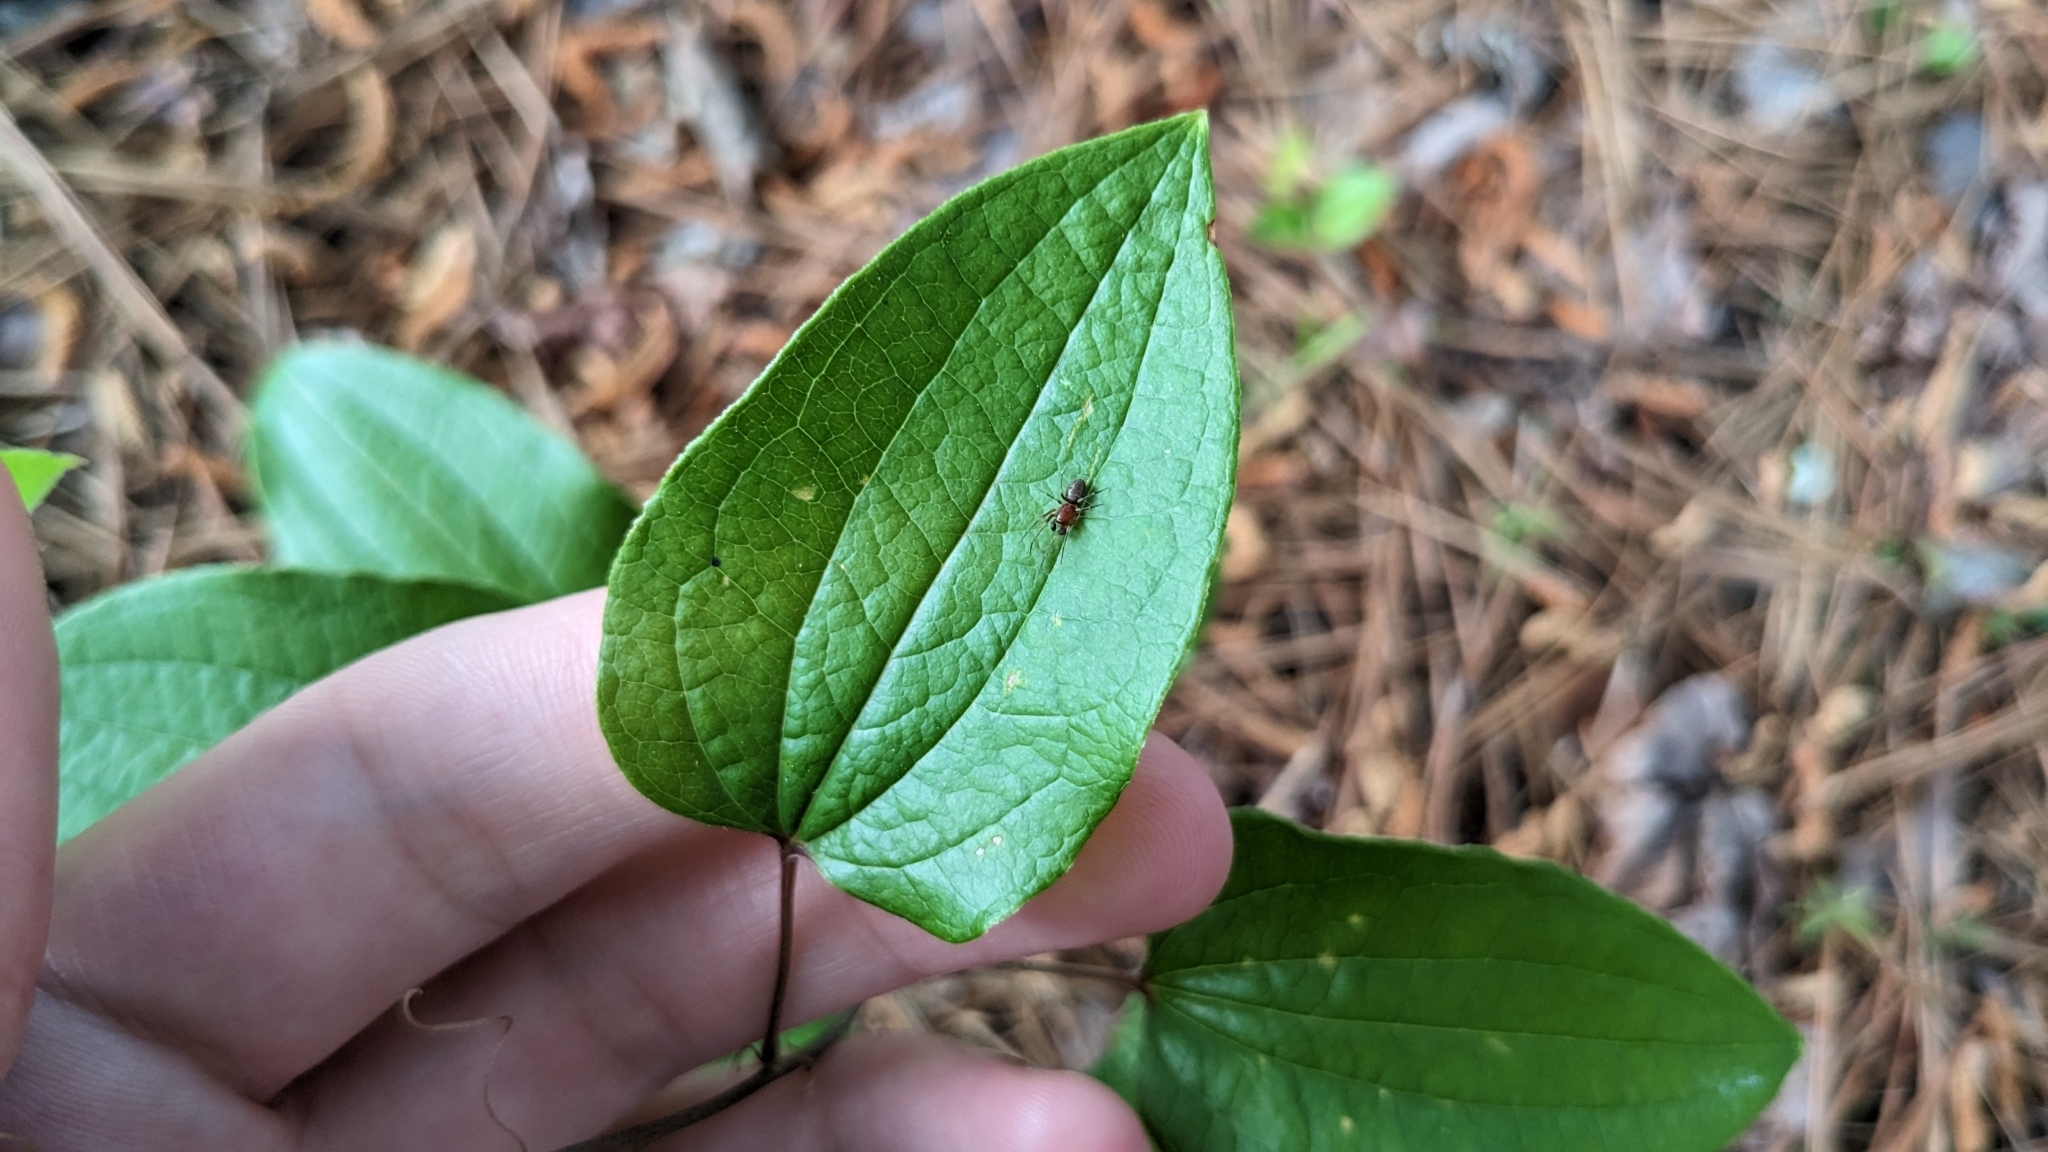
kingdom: Plantae
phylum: Tracheophyta
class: Liliopsida
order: Liliales
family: Smilacaceae
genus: Smilax
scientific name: Smilax pumila
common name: Sarsaparilla-vine
